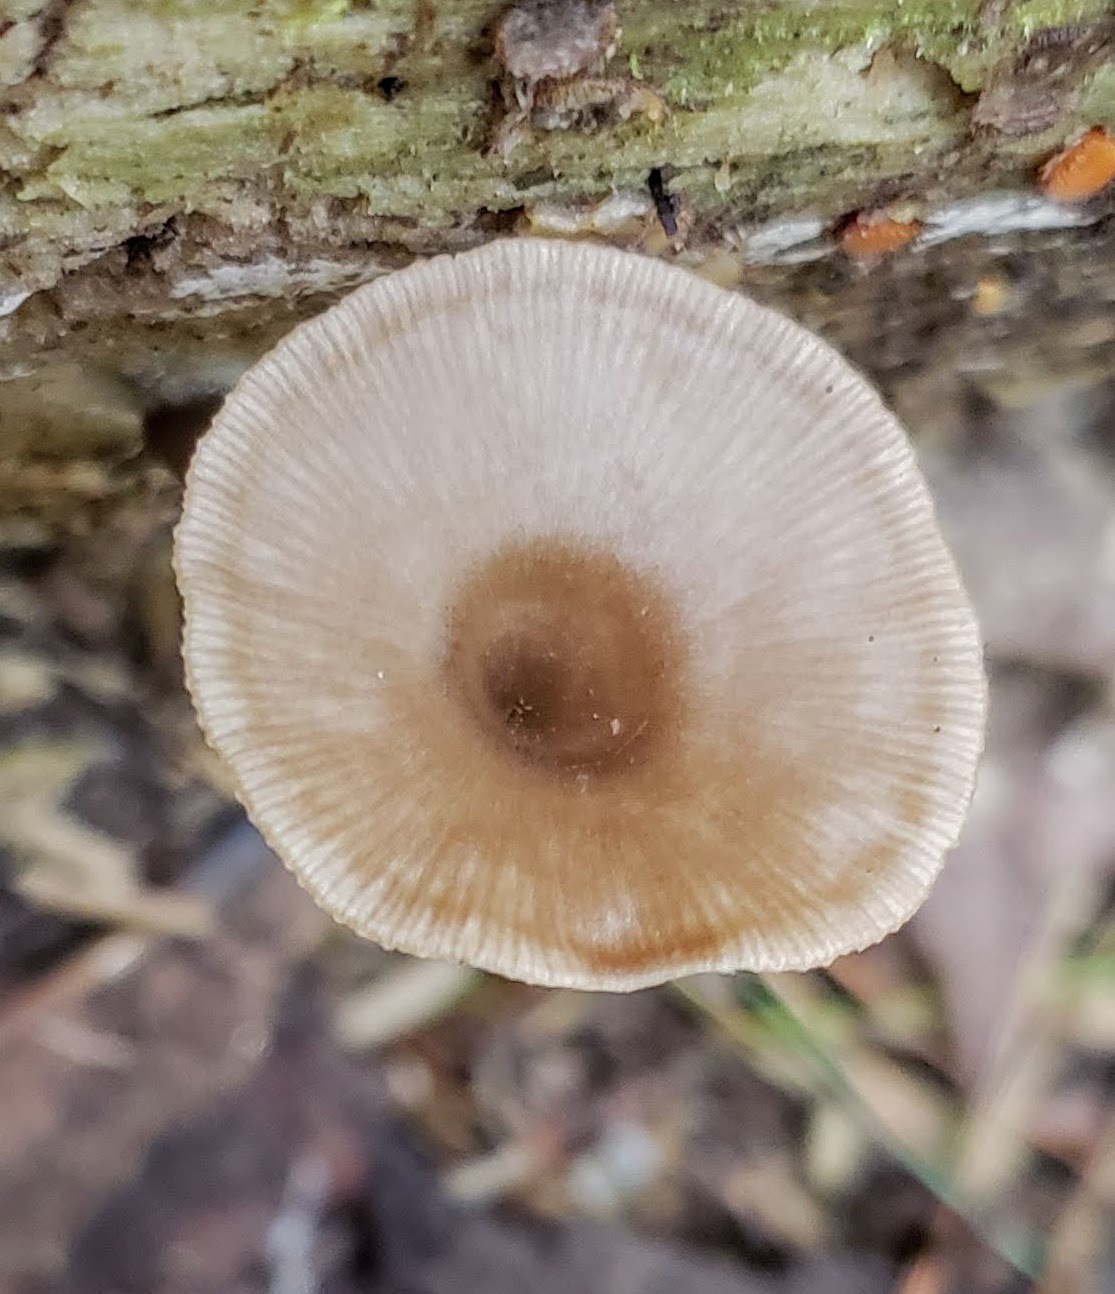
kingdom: Fungi
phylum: Basidiomycota
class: Agaricomycetes
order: Agaricales
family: Hygrophoraceae
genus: Arrhenia
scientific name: Arrhenia epichysium
